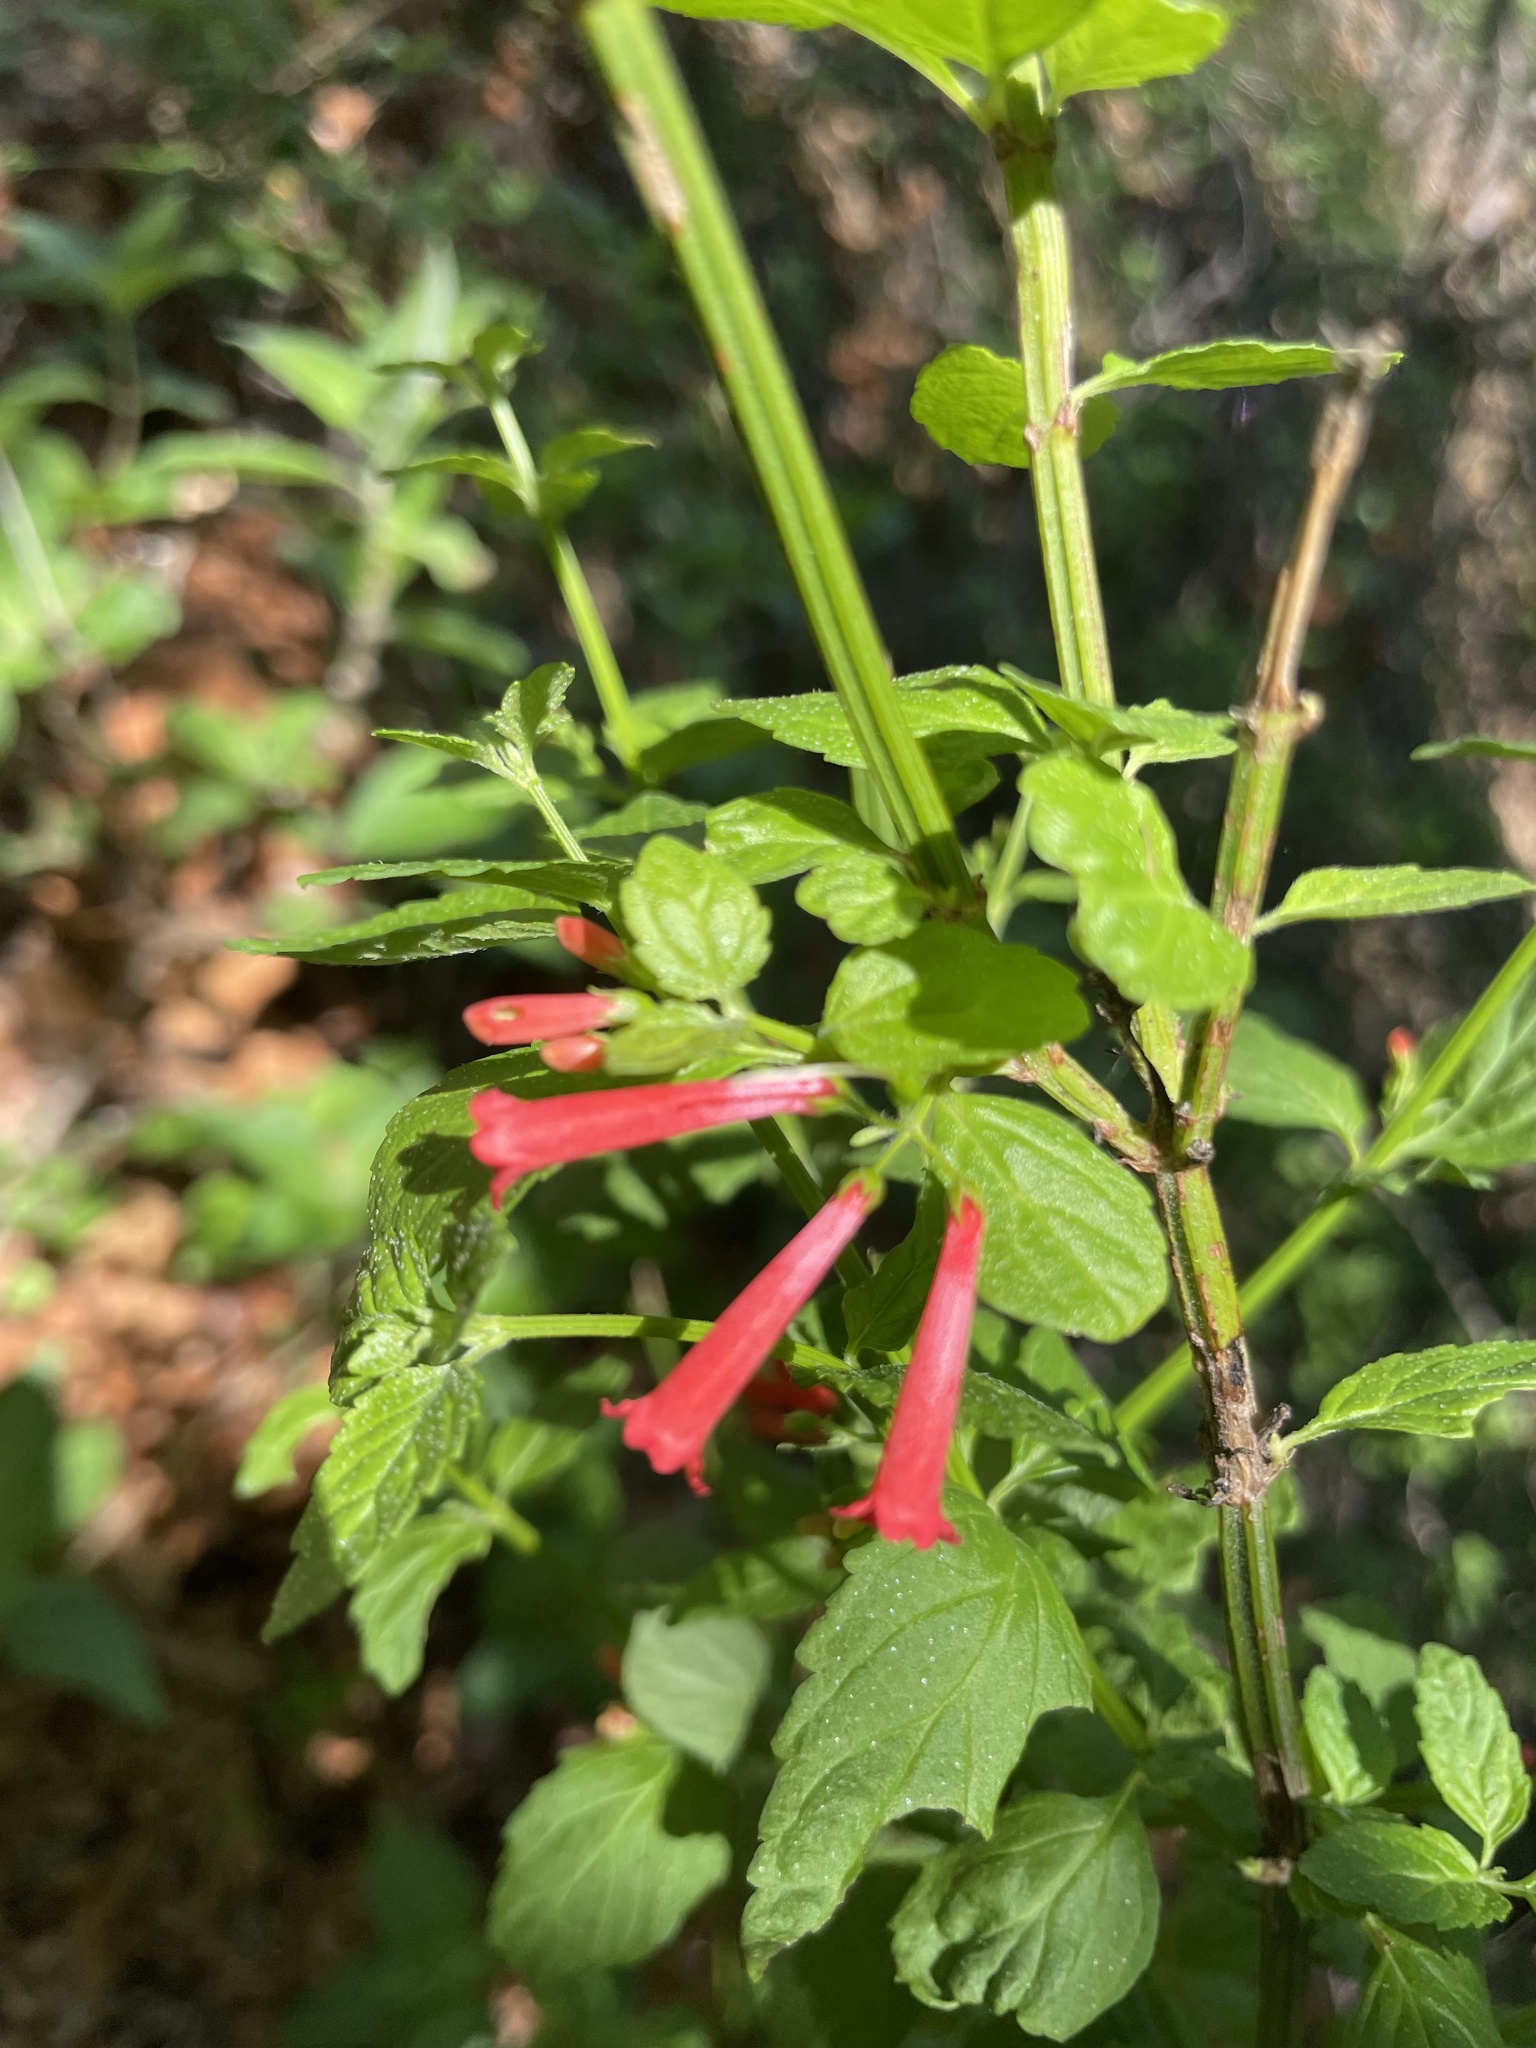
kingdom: Plantae
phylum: Tracheophyta
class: Magnoliopsida
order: Lamiales
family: Plantaginaceae
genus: Russelia
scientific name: Russelia retrorsa
